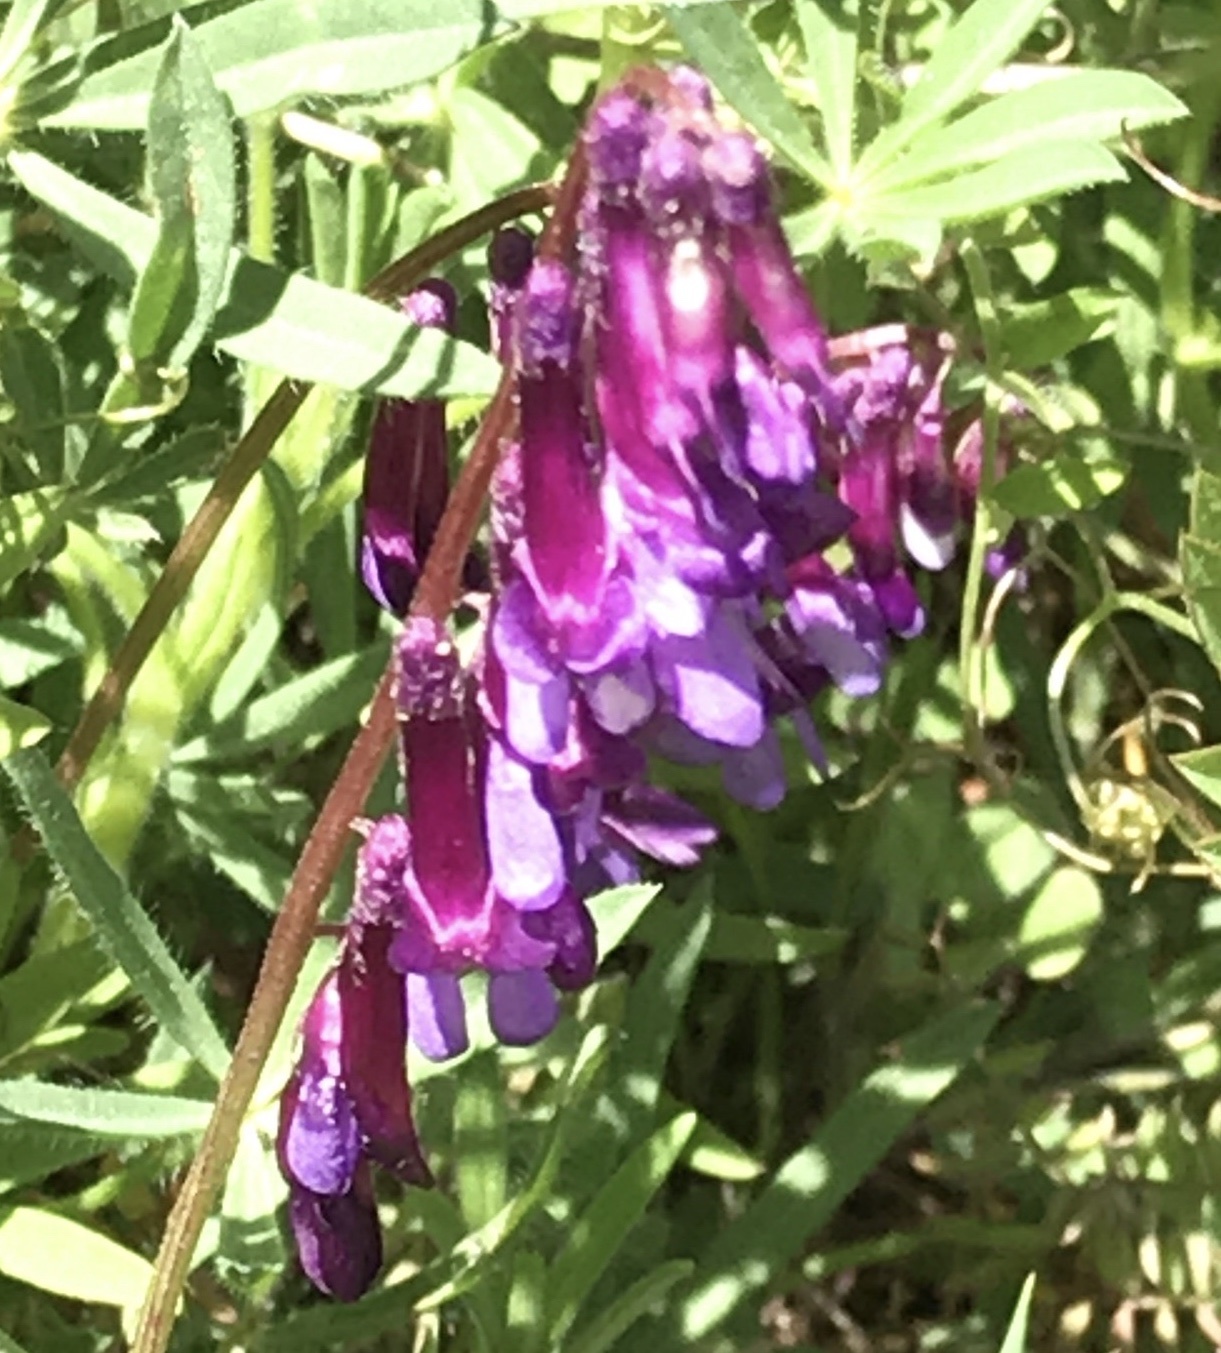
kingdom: Plantae
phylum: Tracheophyta
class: Magnoliopsida
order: Fabales
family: Fabaceae
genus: Vicia
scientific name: Vicia villosa
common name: Fodder vetch
